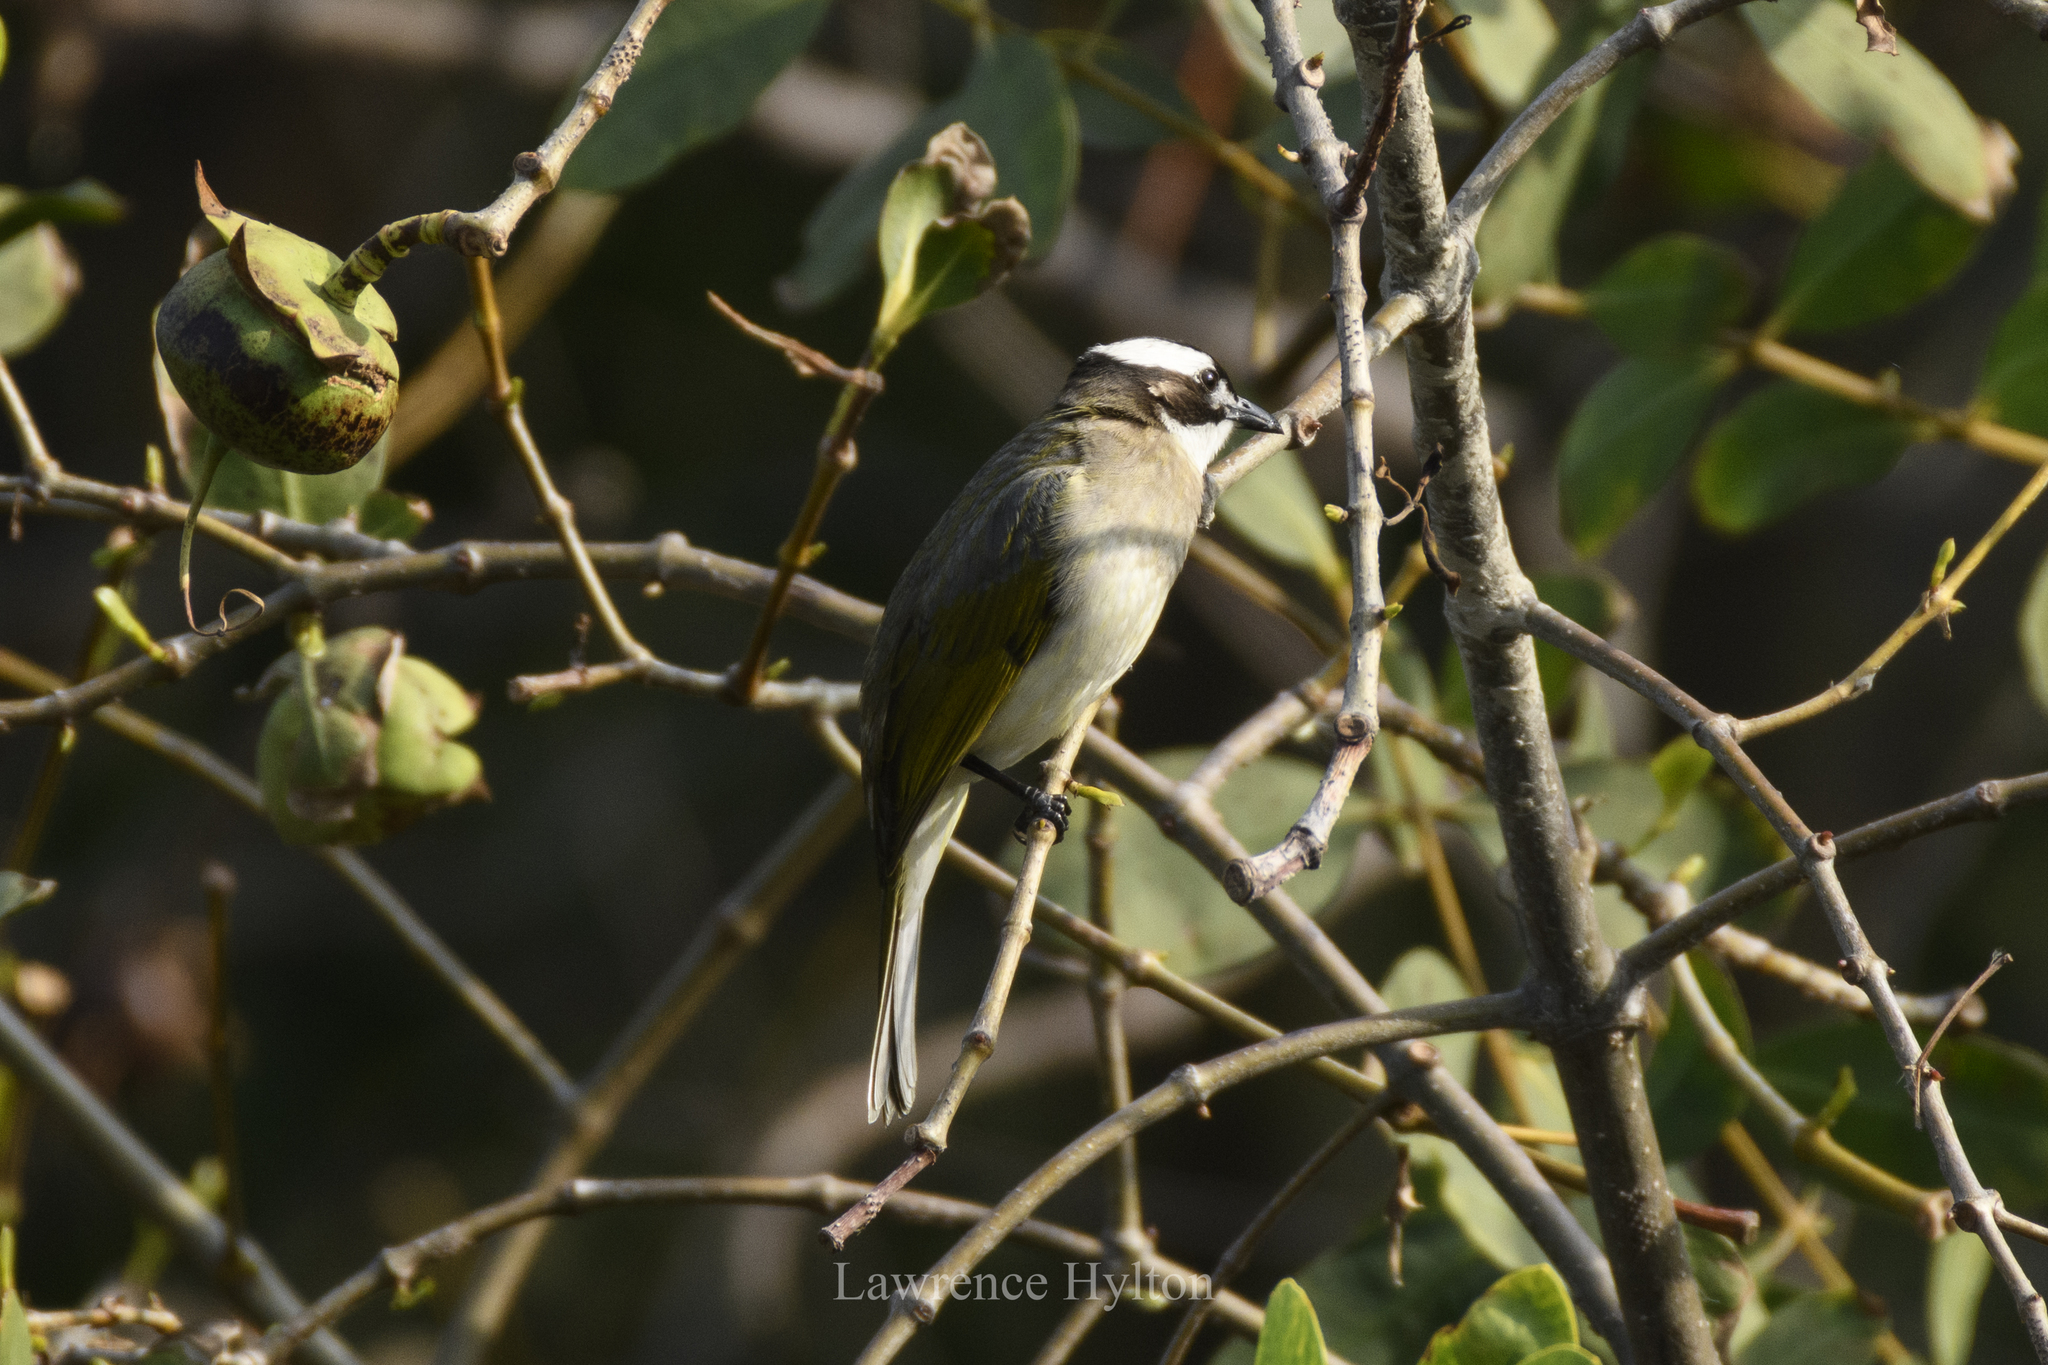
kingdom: Animalia
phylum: Chordata
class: Aves
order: Passeriformes
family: Pycnonotidae
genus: Pycnonotus
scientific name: Pycnonotus sinensis
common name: Light-vented bulbul
